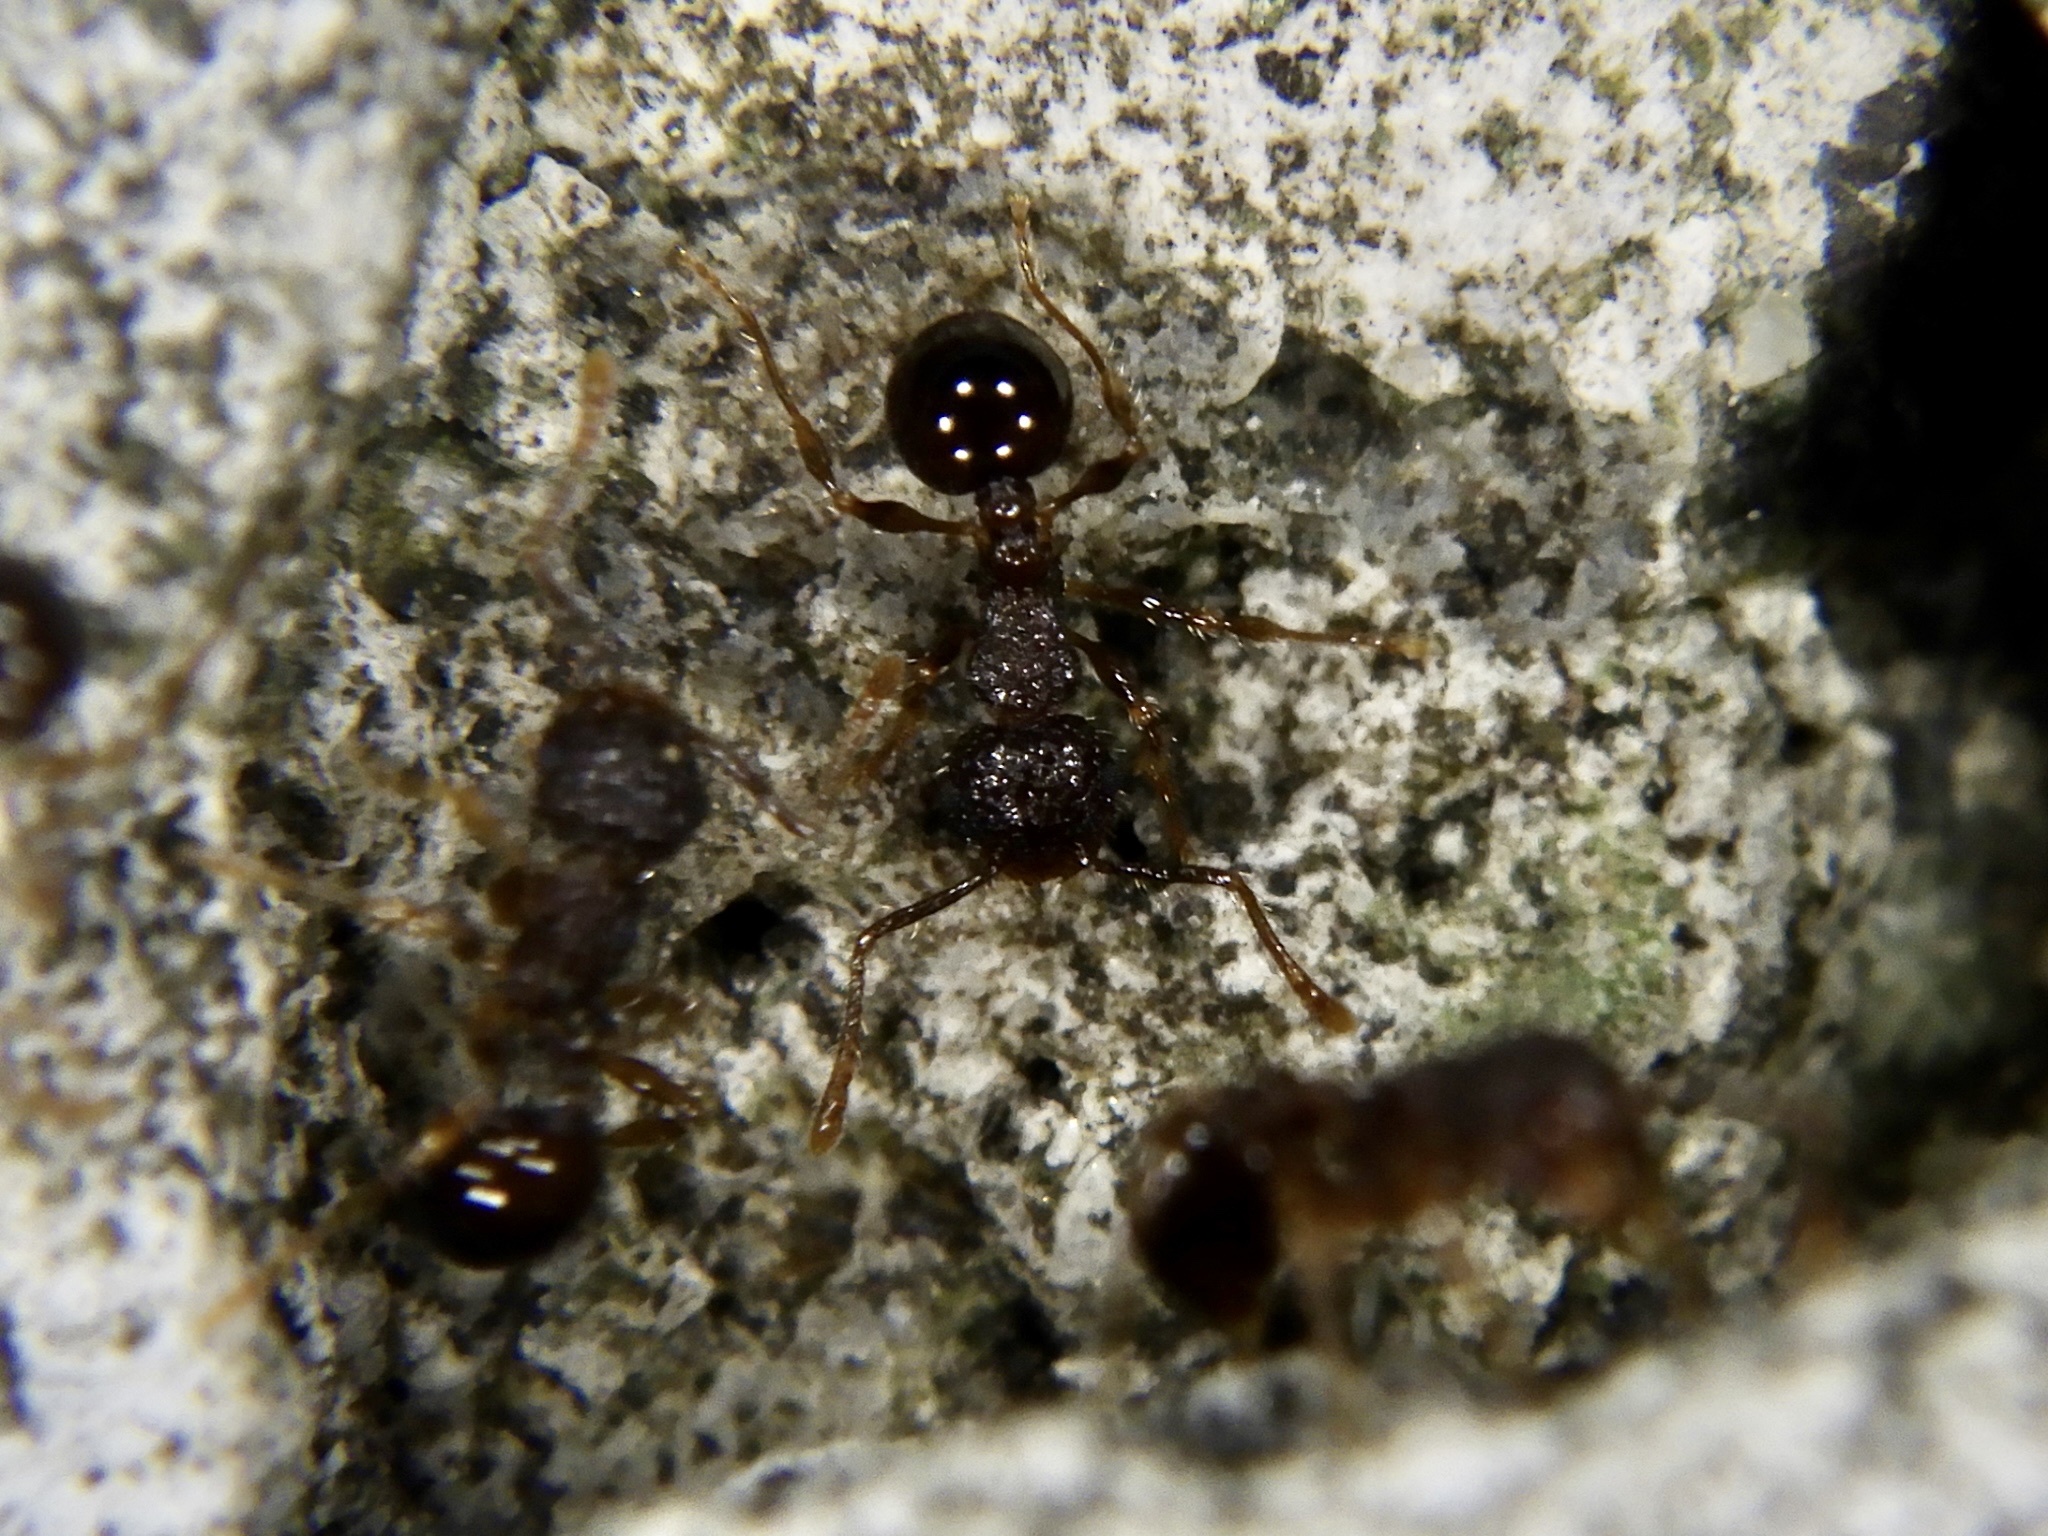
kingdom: Animalia
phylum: Arthropoda
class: Insecta
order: Hymenoptera
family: Formicidae
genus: Pristomyrmex
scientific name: Pristomyrmex punctatus
